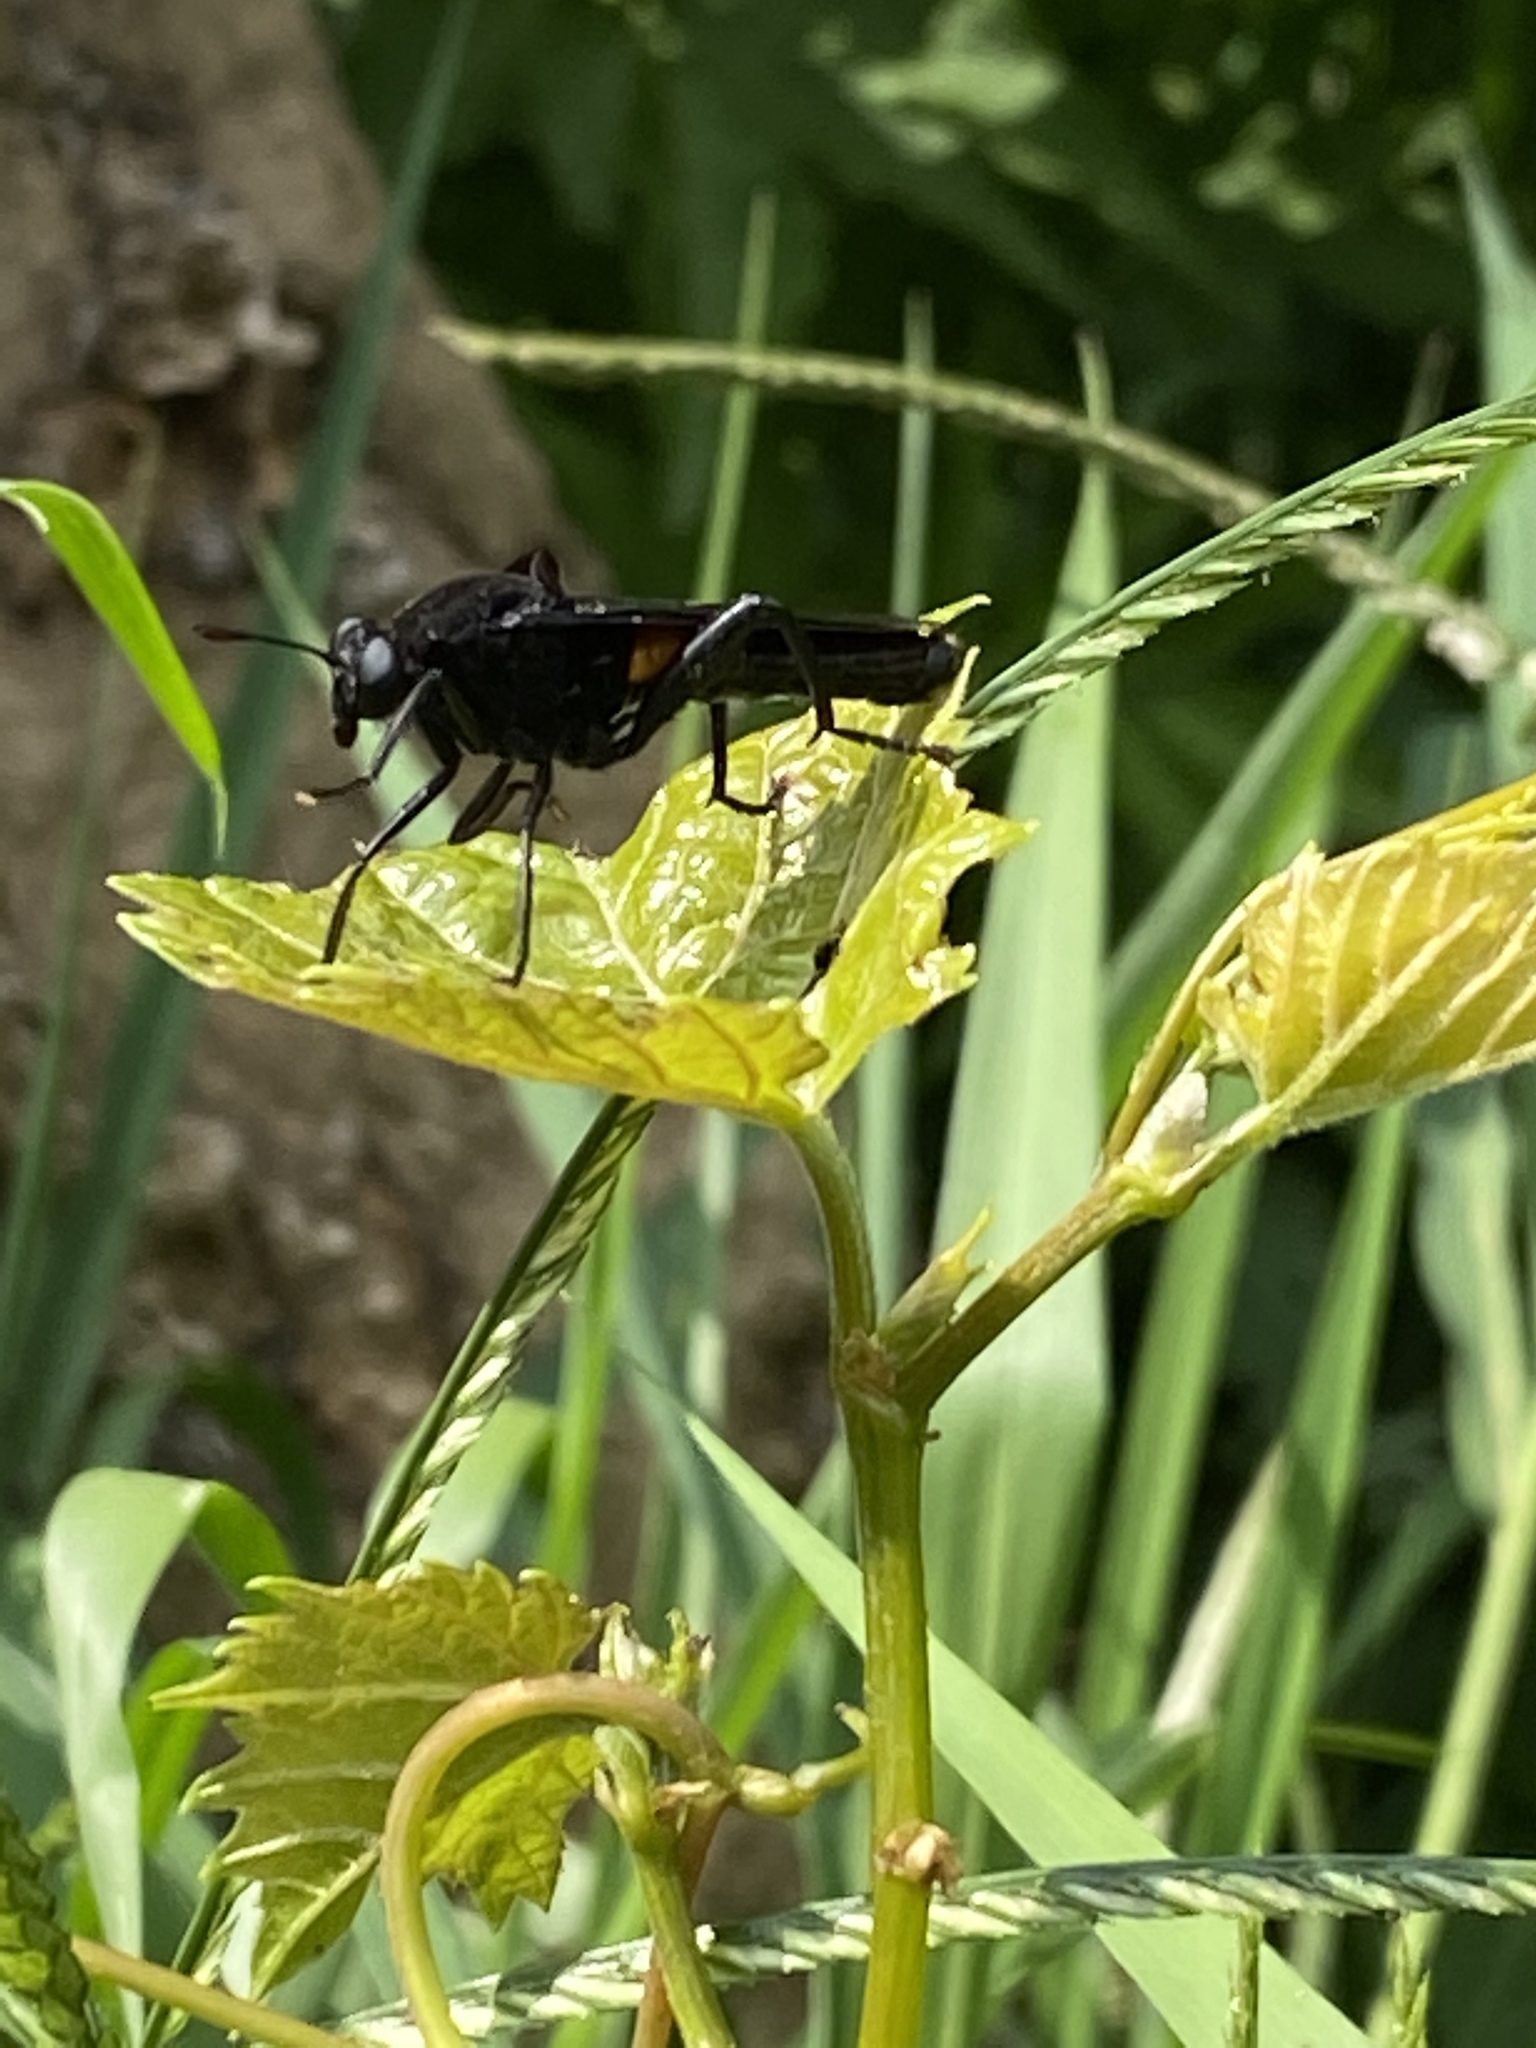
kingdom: Animalia
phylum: Arthropoda
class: Insecta
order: Diptera
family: Mydidae
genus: Mydas
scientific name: Mydas clavatus
